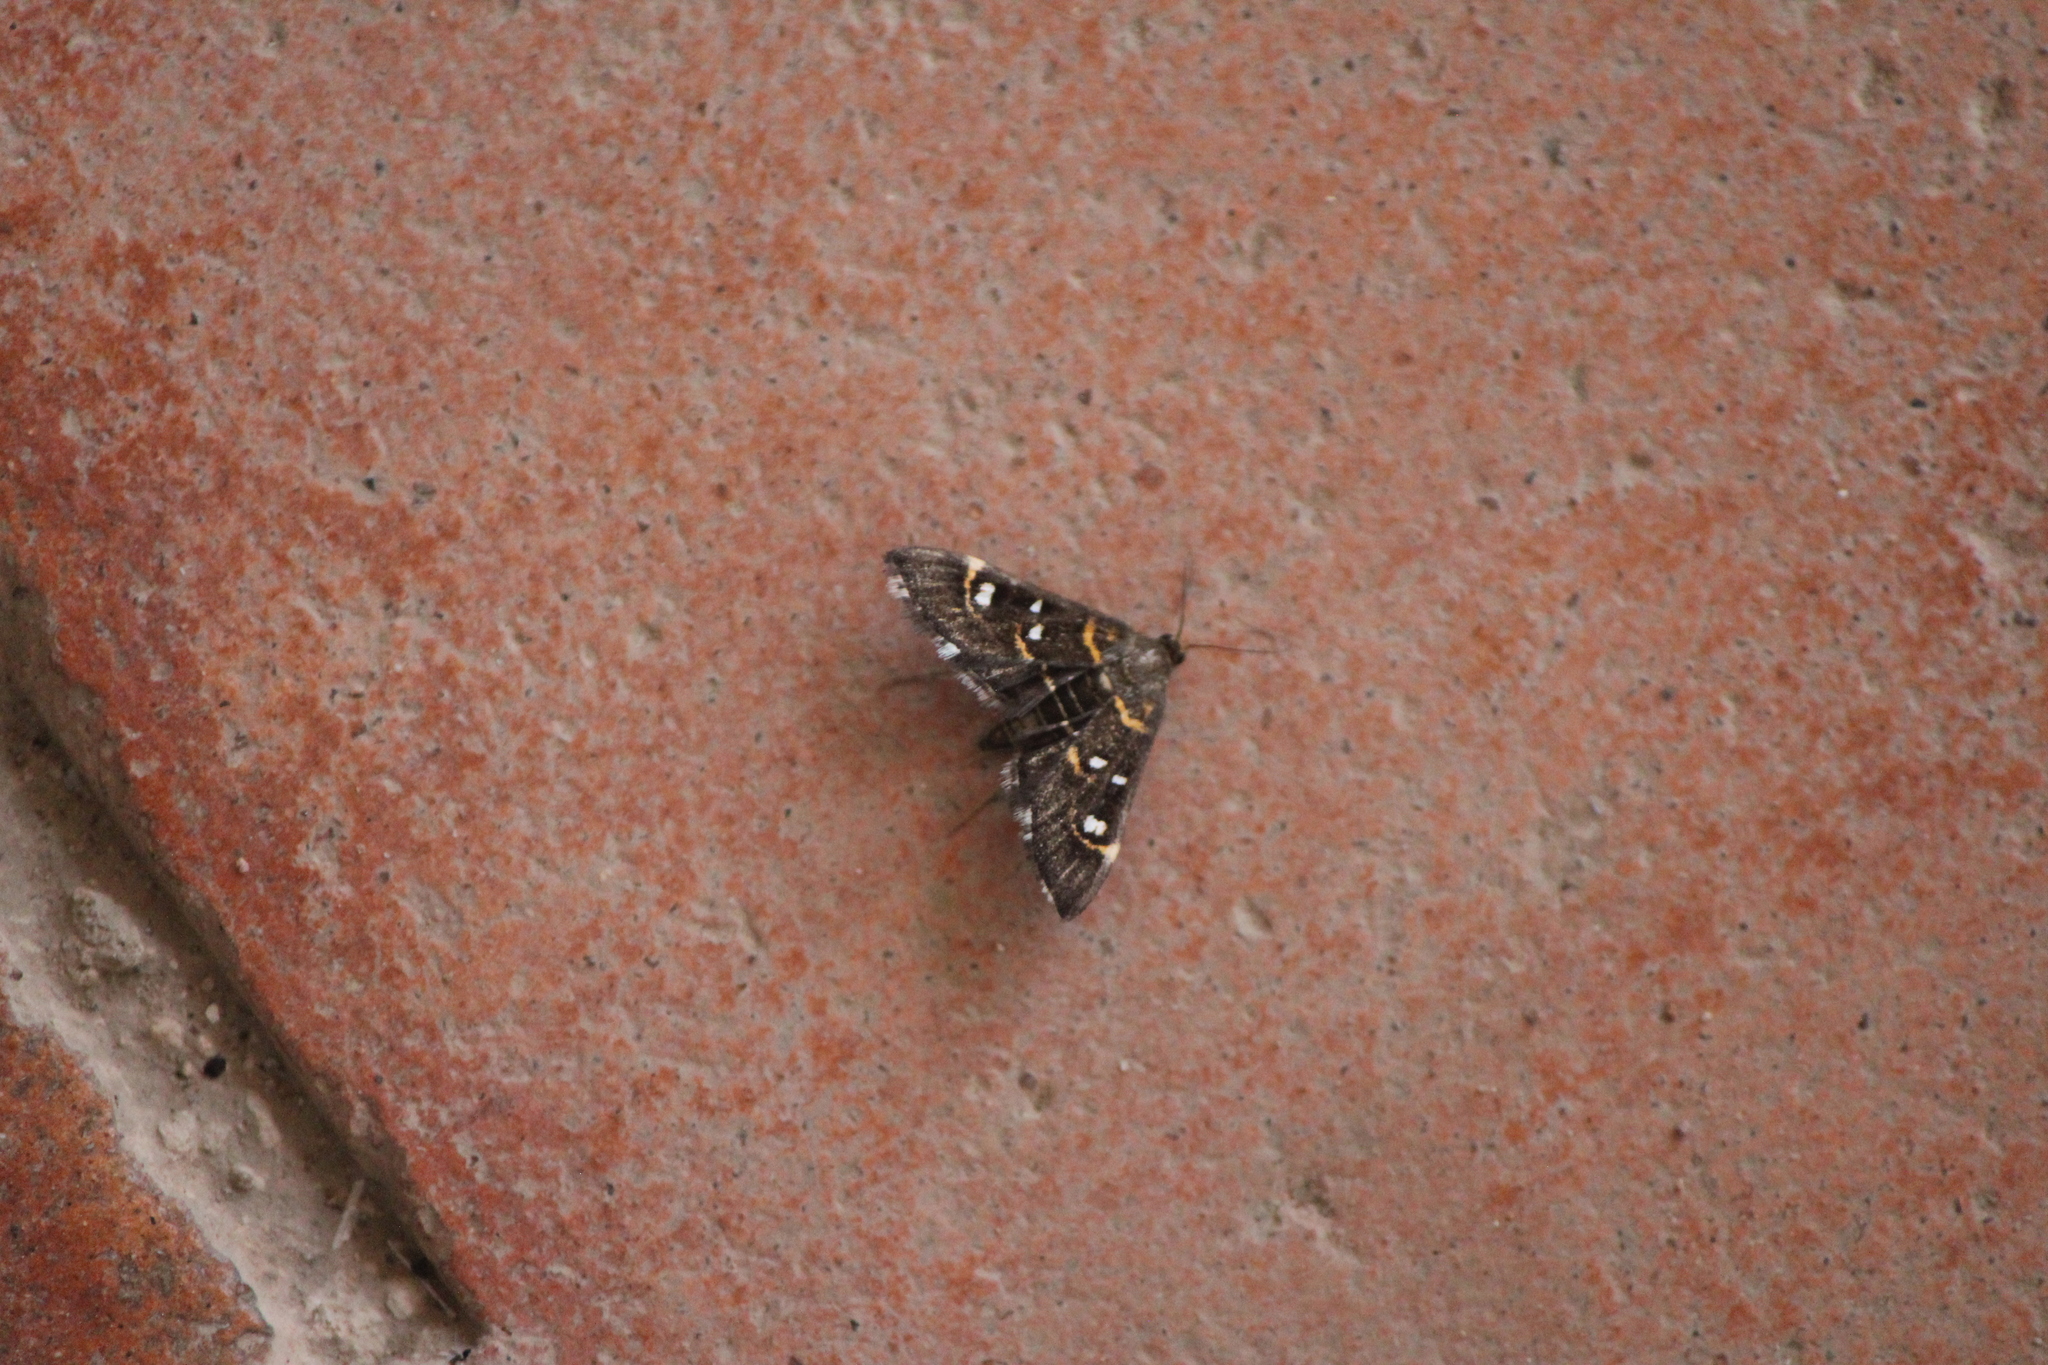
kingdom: Animalia
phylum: Arthropoda
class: Insecta
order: Lepidoptera
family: Crambidae
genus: Diathrausta
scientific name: Diathrausta harlequinalis
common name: Harlequin webworm moth
